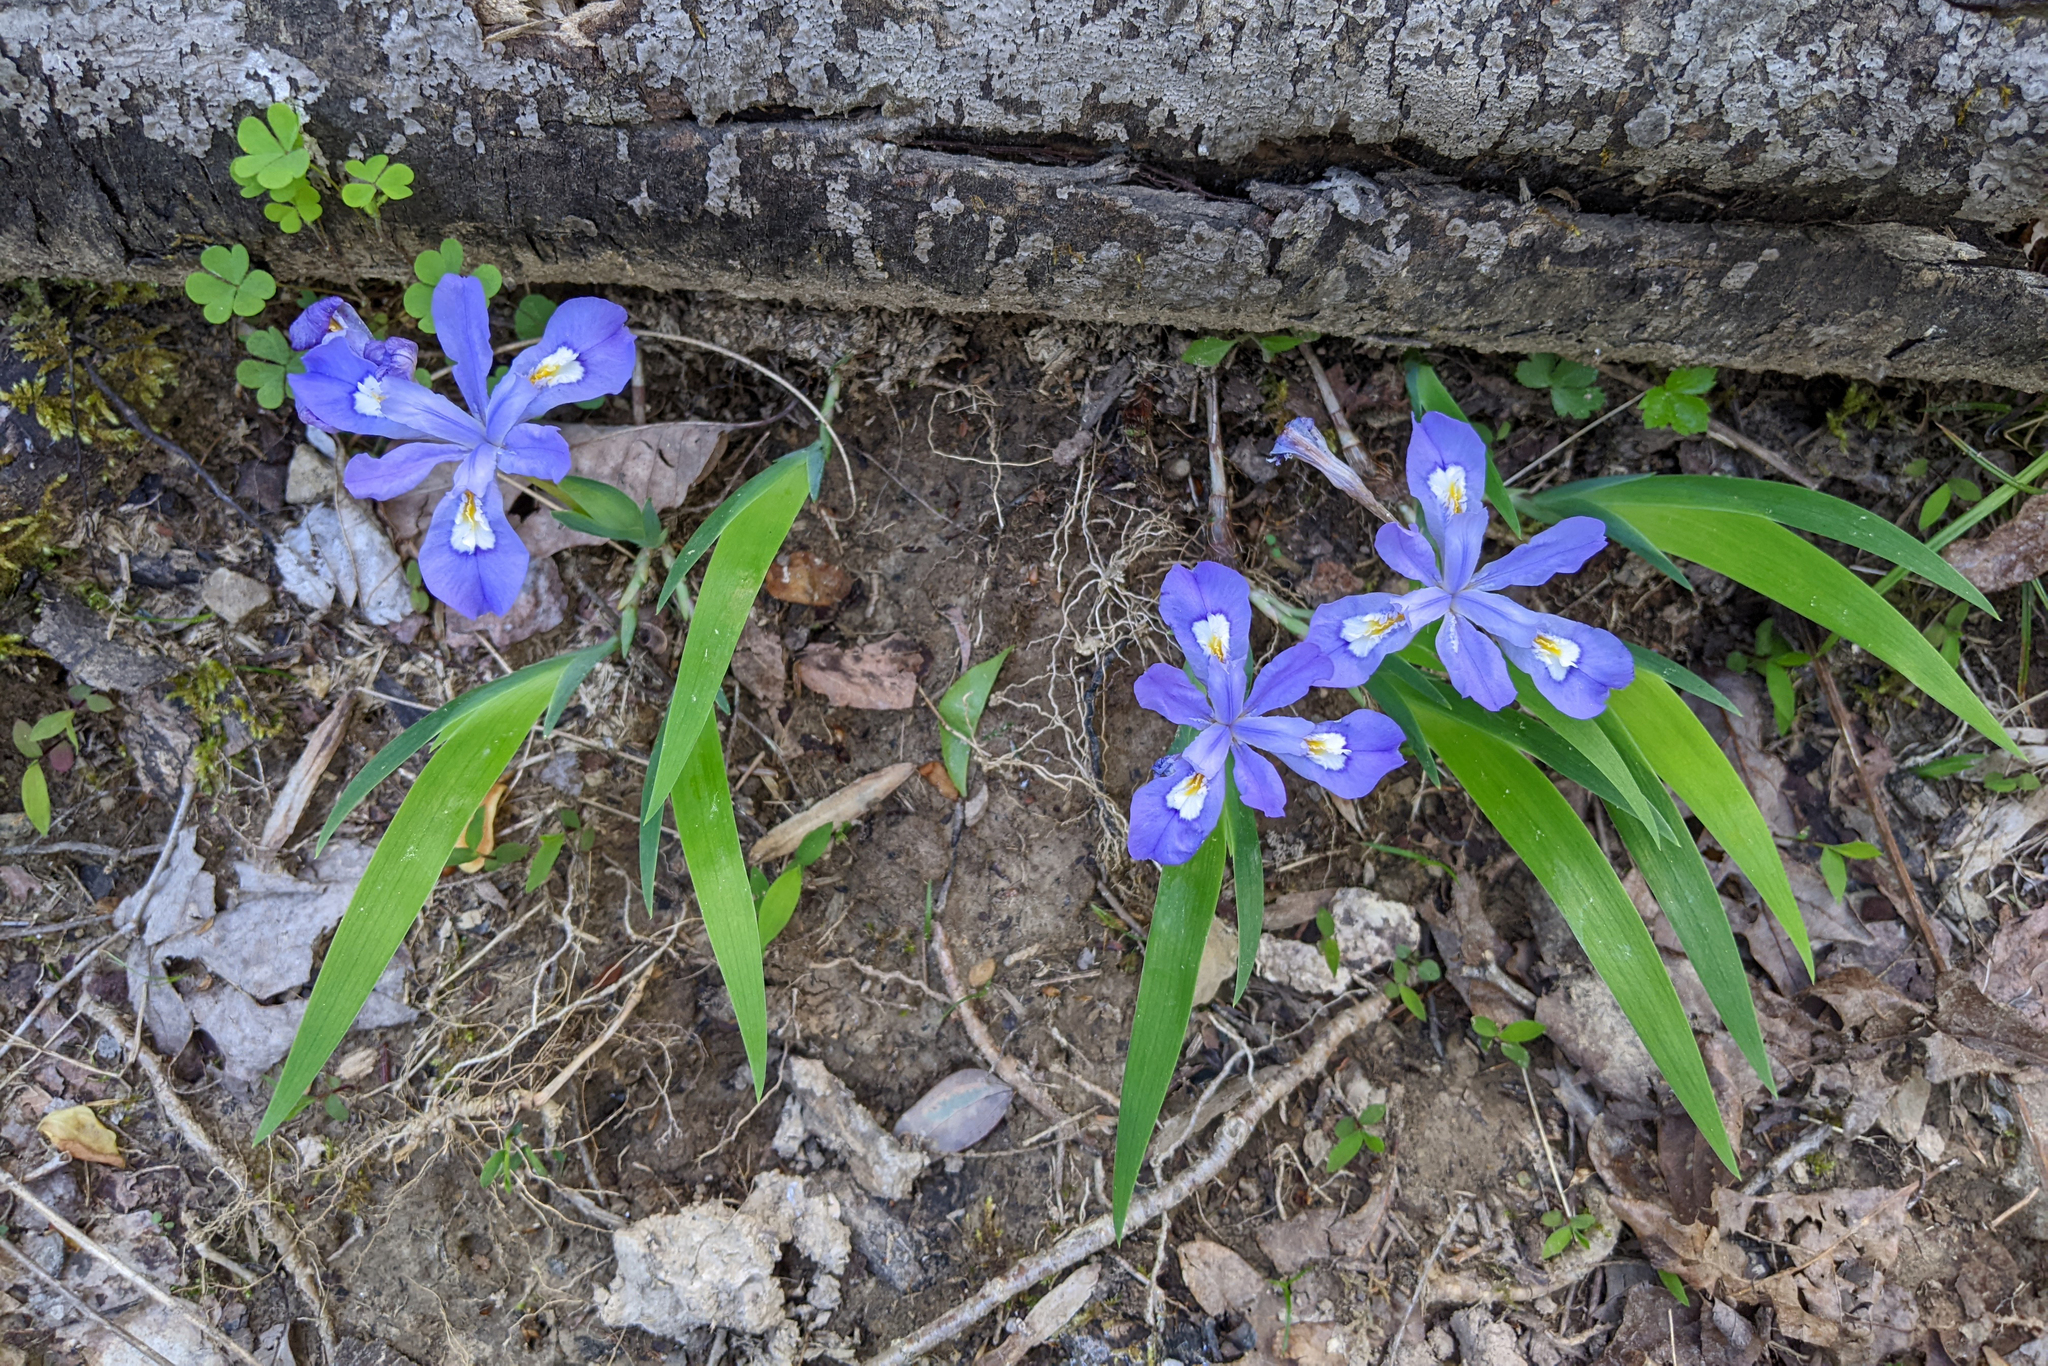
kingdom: Plantae
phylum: Tracheophyta
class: Liliopsida
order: Asparagales
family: Iridaceae
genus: Iris
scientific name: Iris cristata
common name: Crested iris
